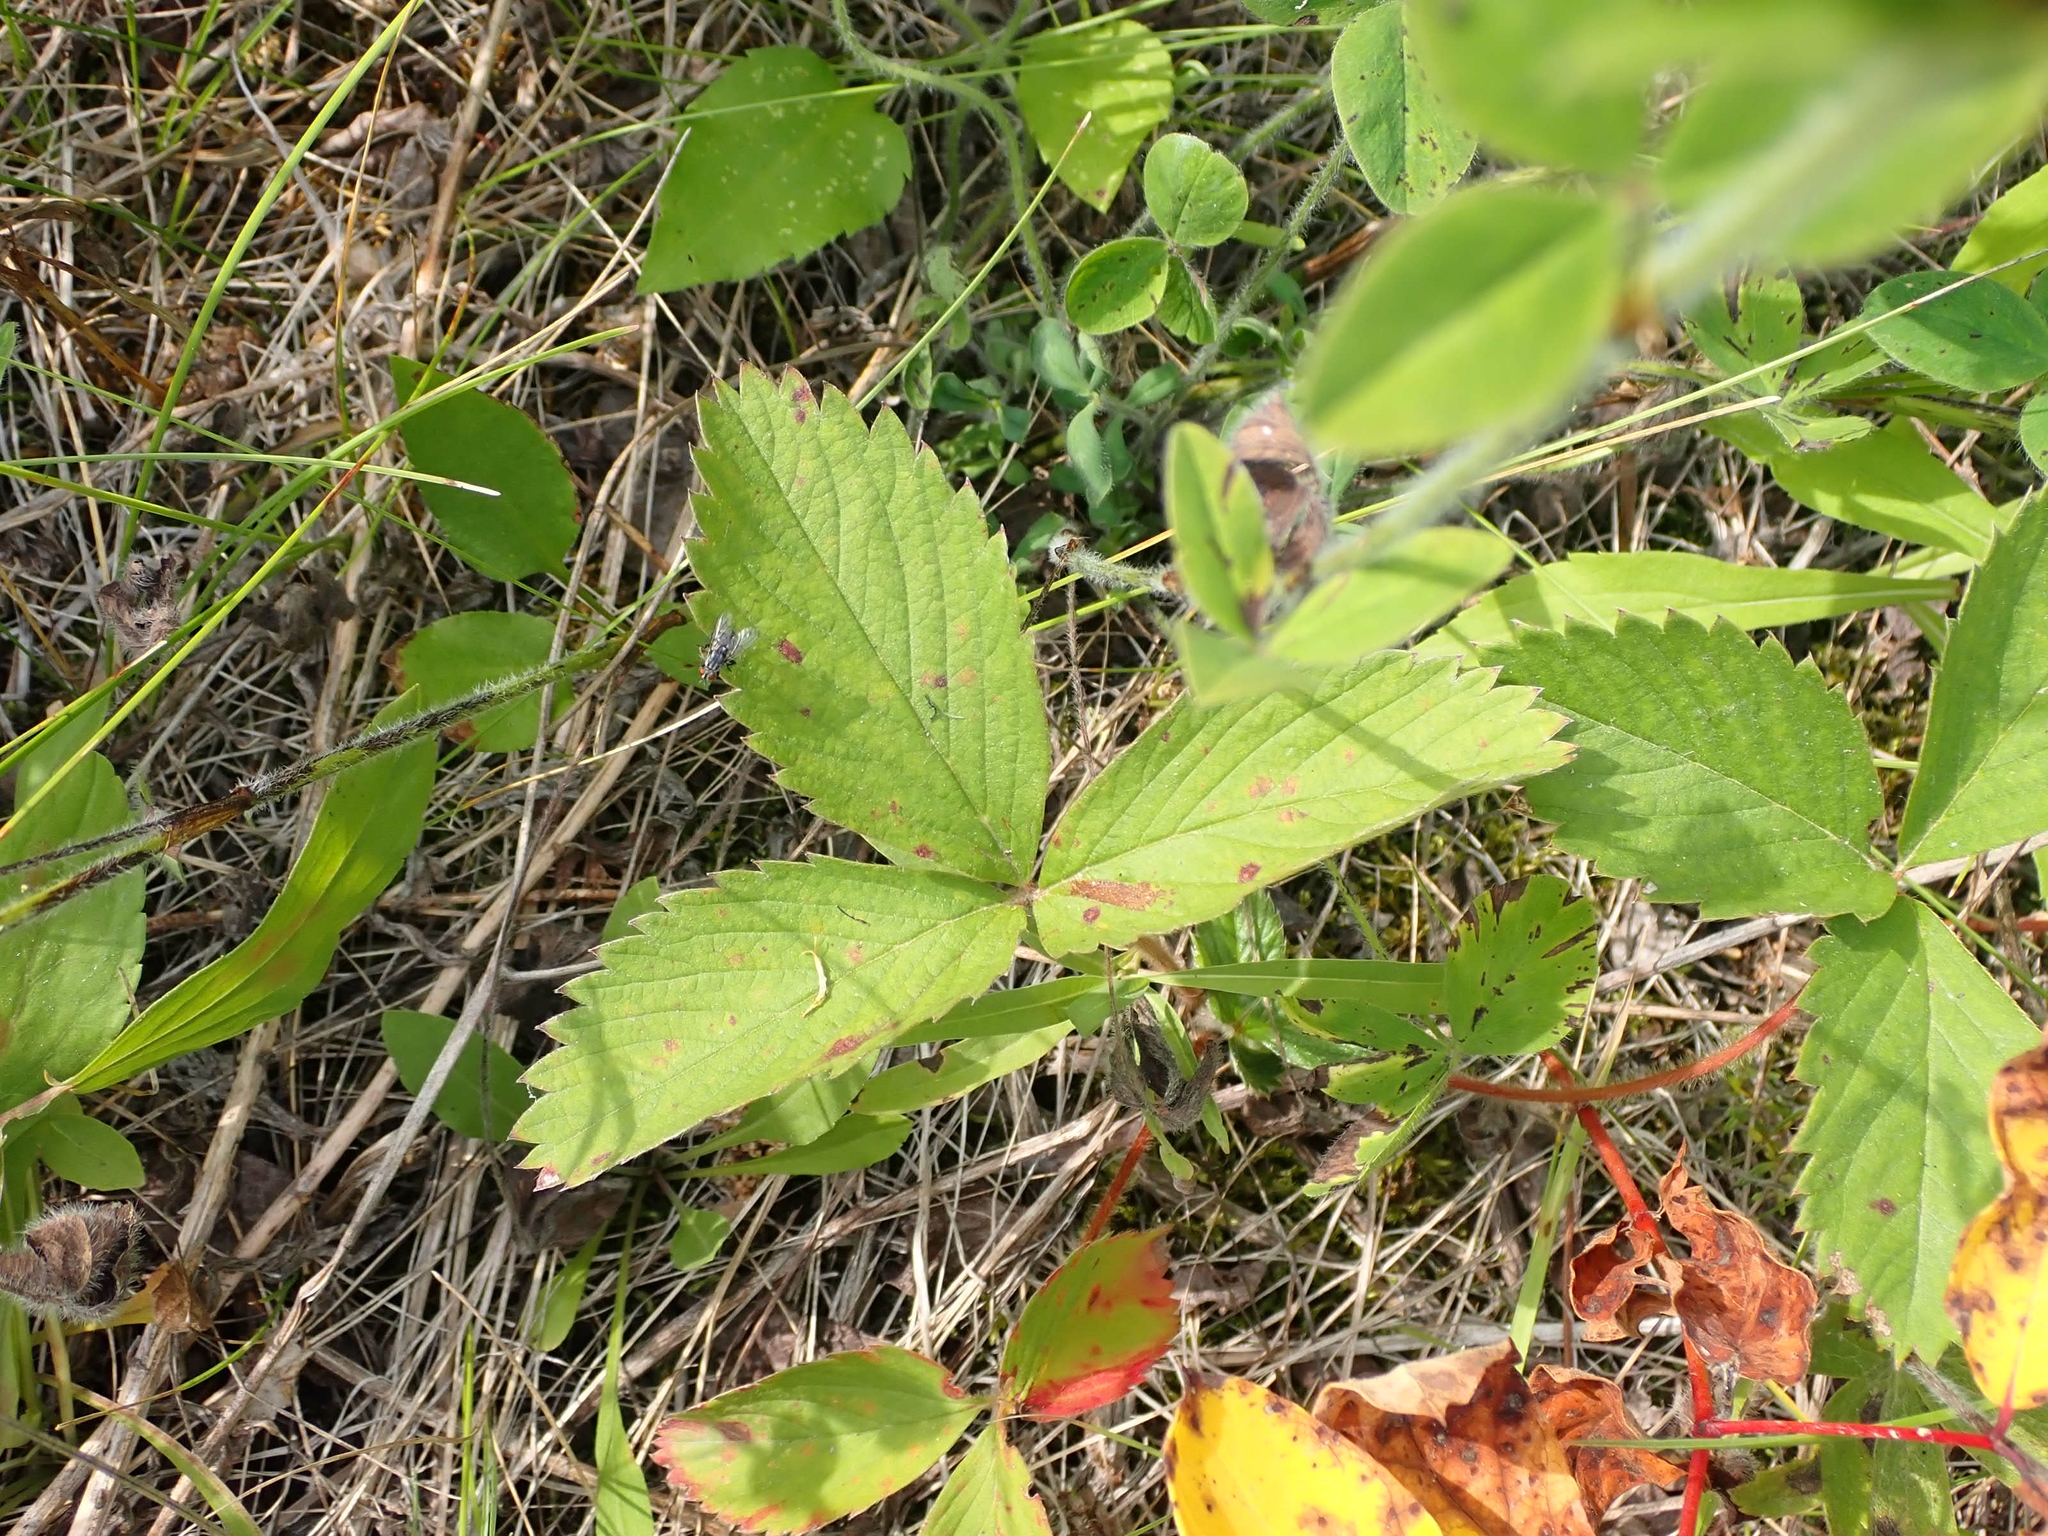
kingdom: Plantae
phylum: Tracheophyta
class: Magnoliopsida
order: Rosales
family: Rosaceae
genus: Fragaria
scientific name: Fragaria virginiana
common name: Thickleaved wild strawberry
